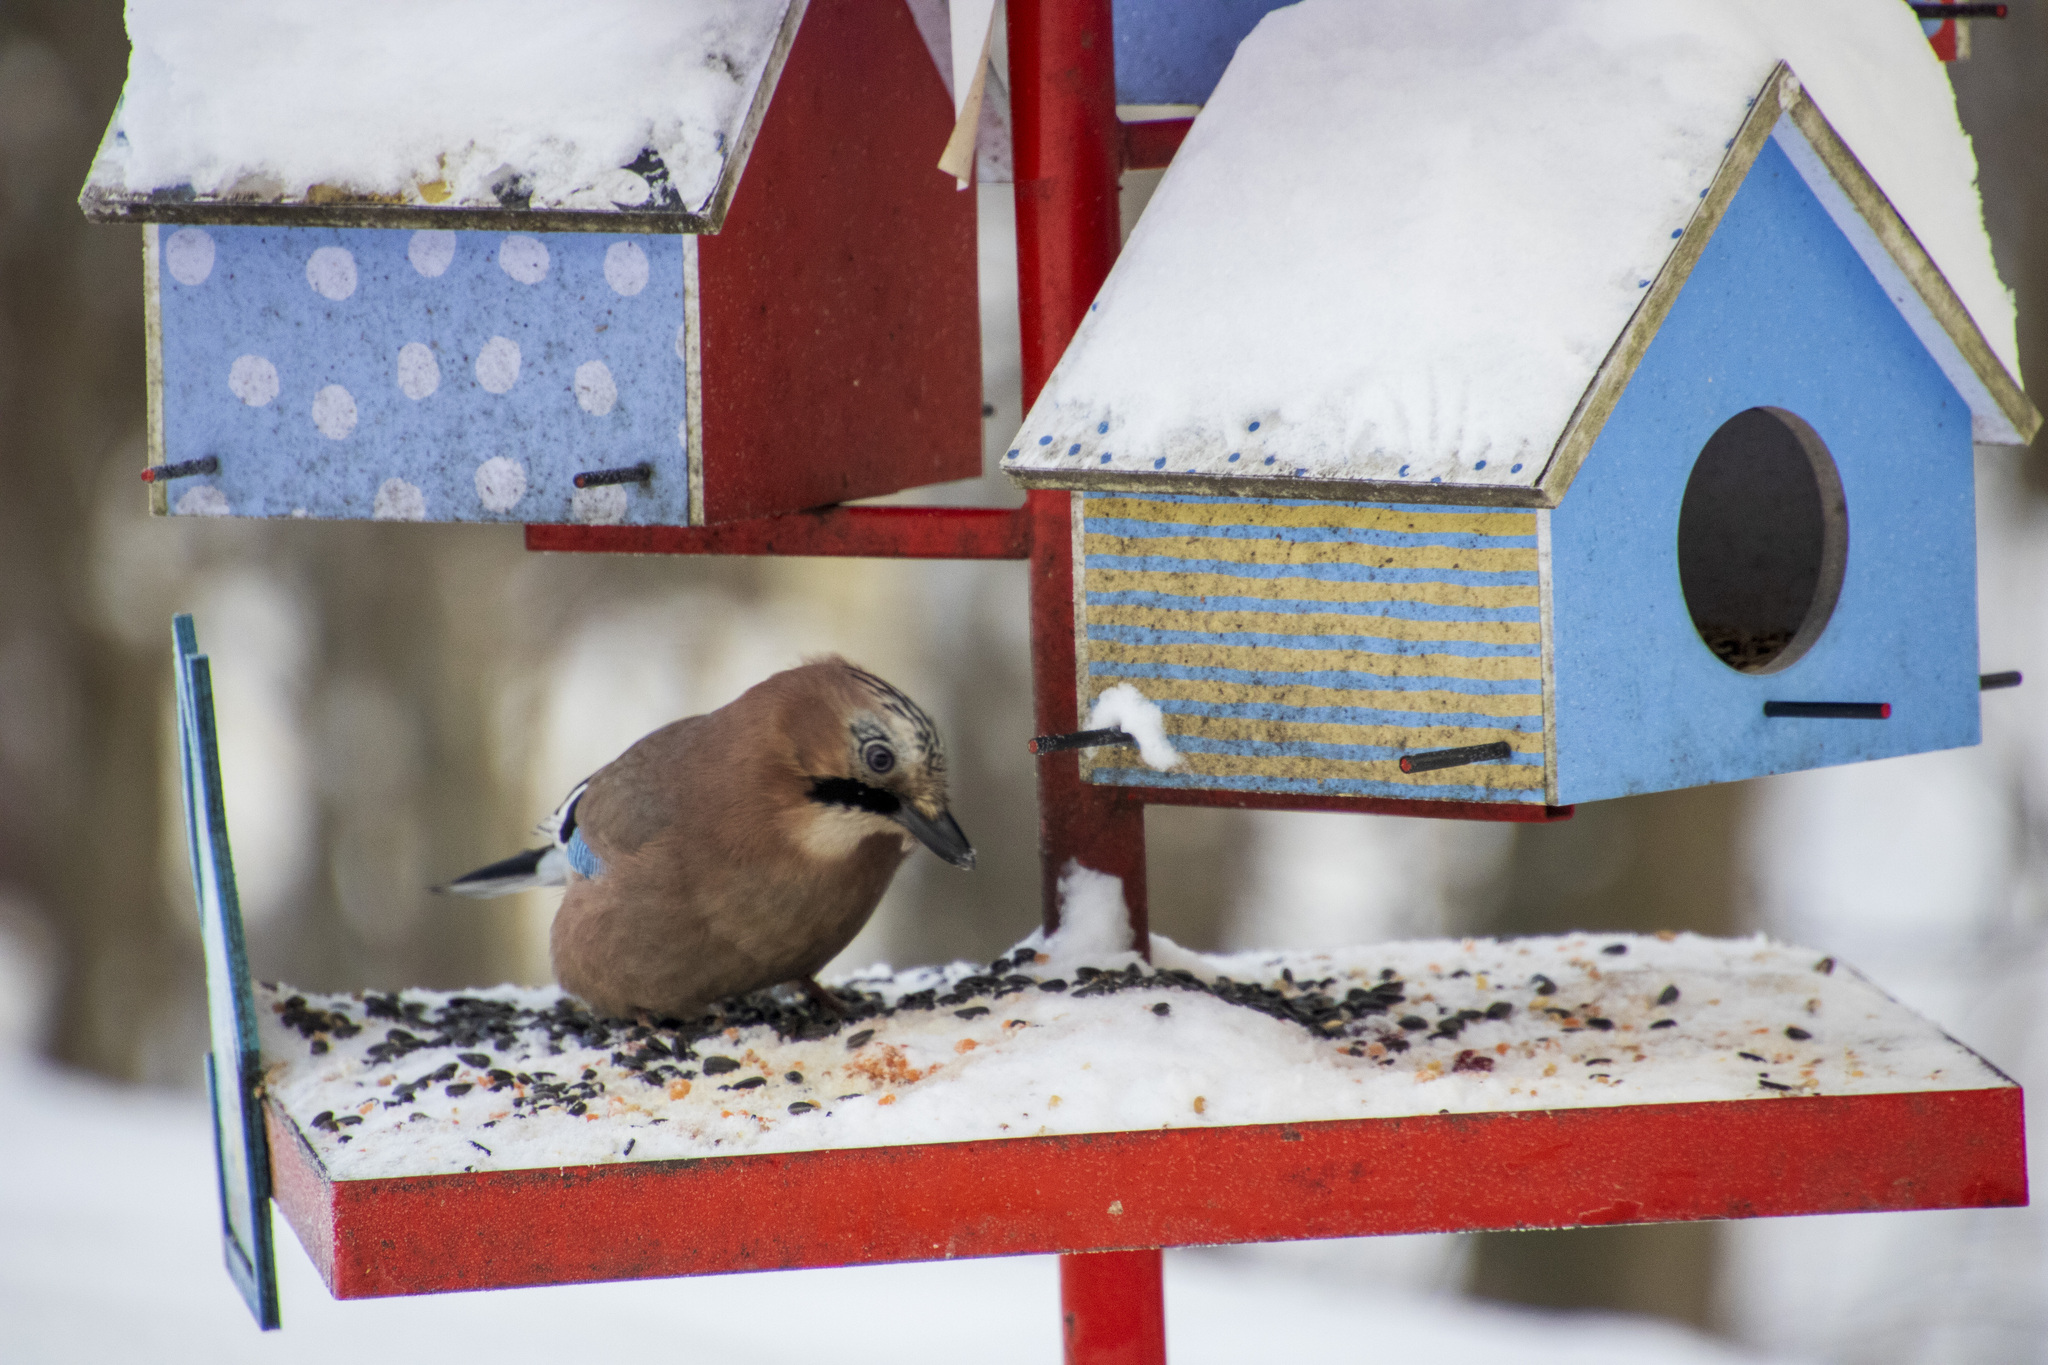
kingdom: Animalia
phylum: Chordata
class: Aves
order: Passeriformes
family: Corvidae
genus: Garrulus
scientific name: Garrulus glandarius
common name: Eurasian jay
